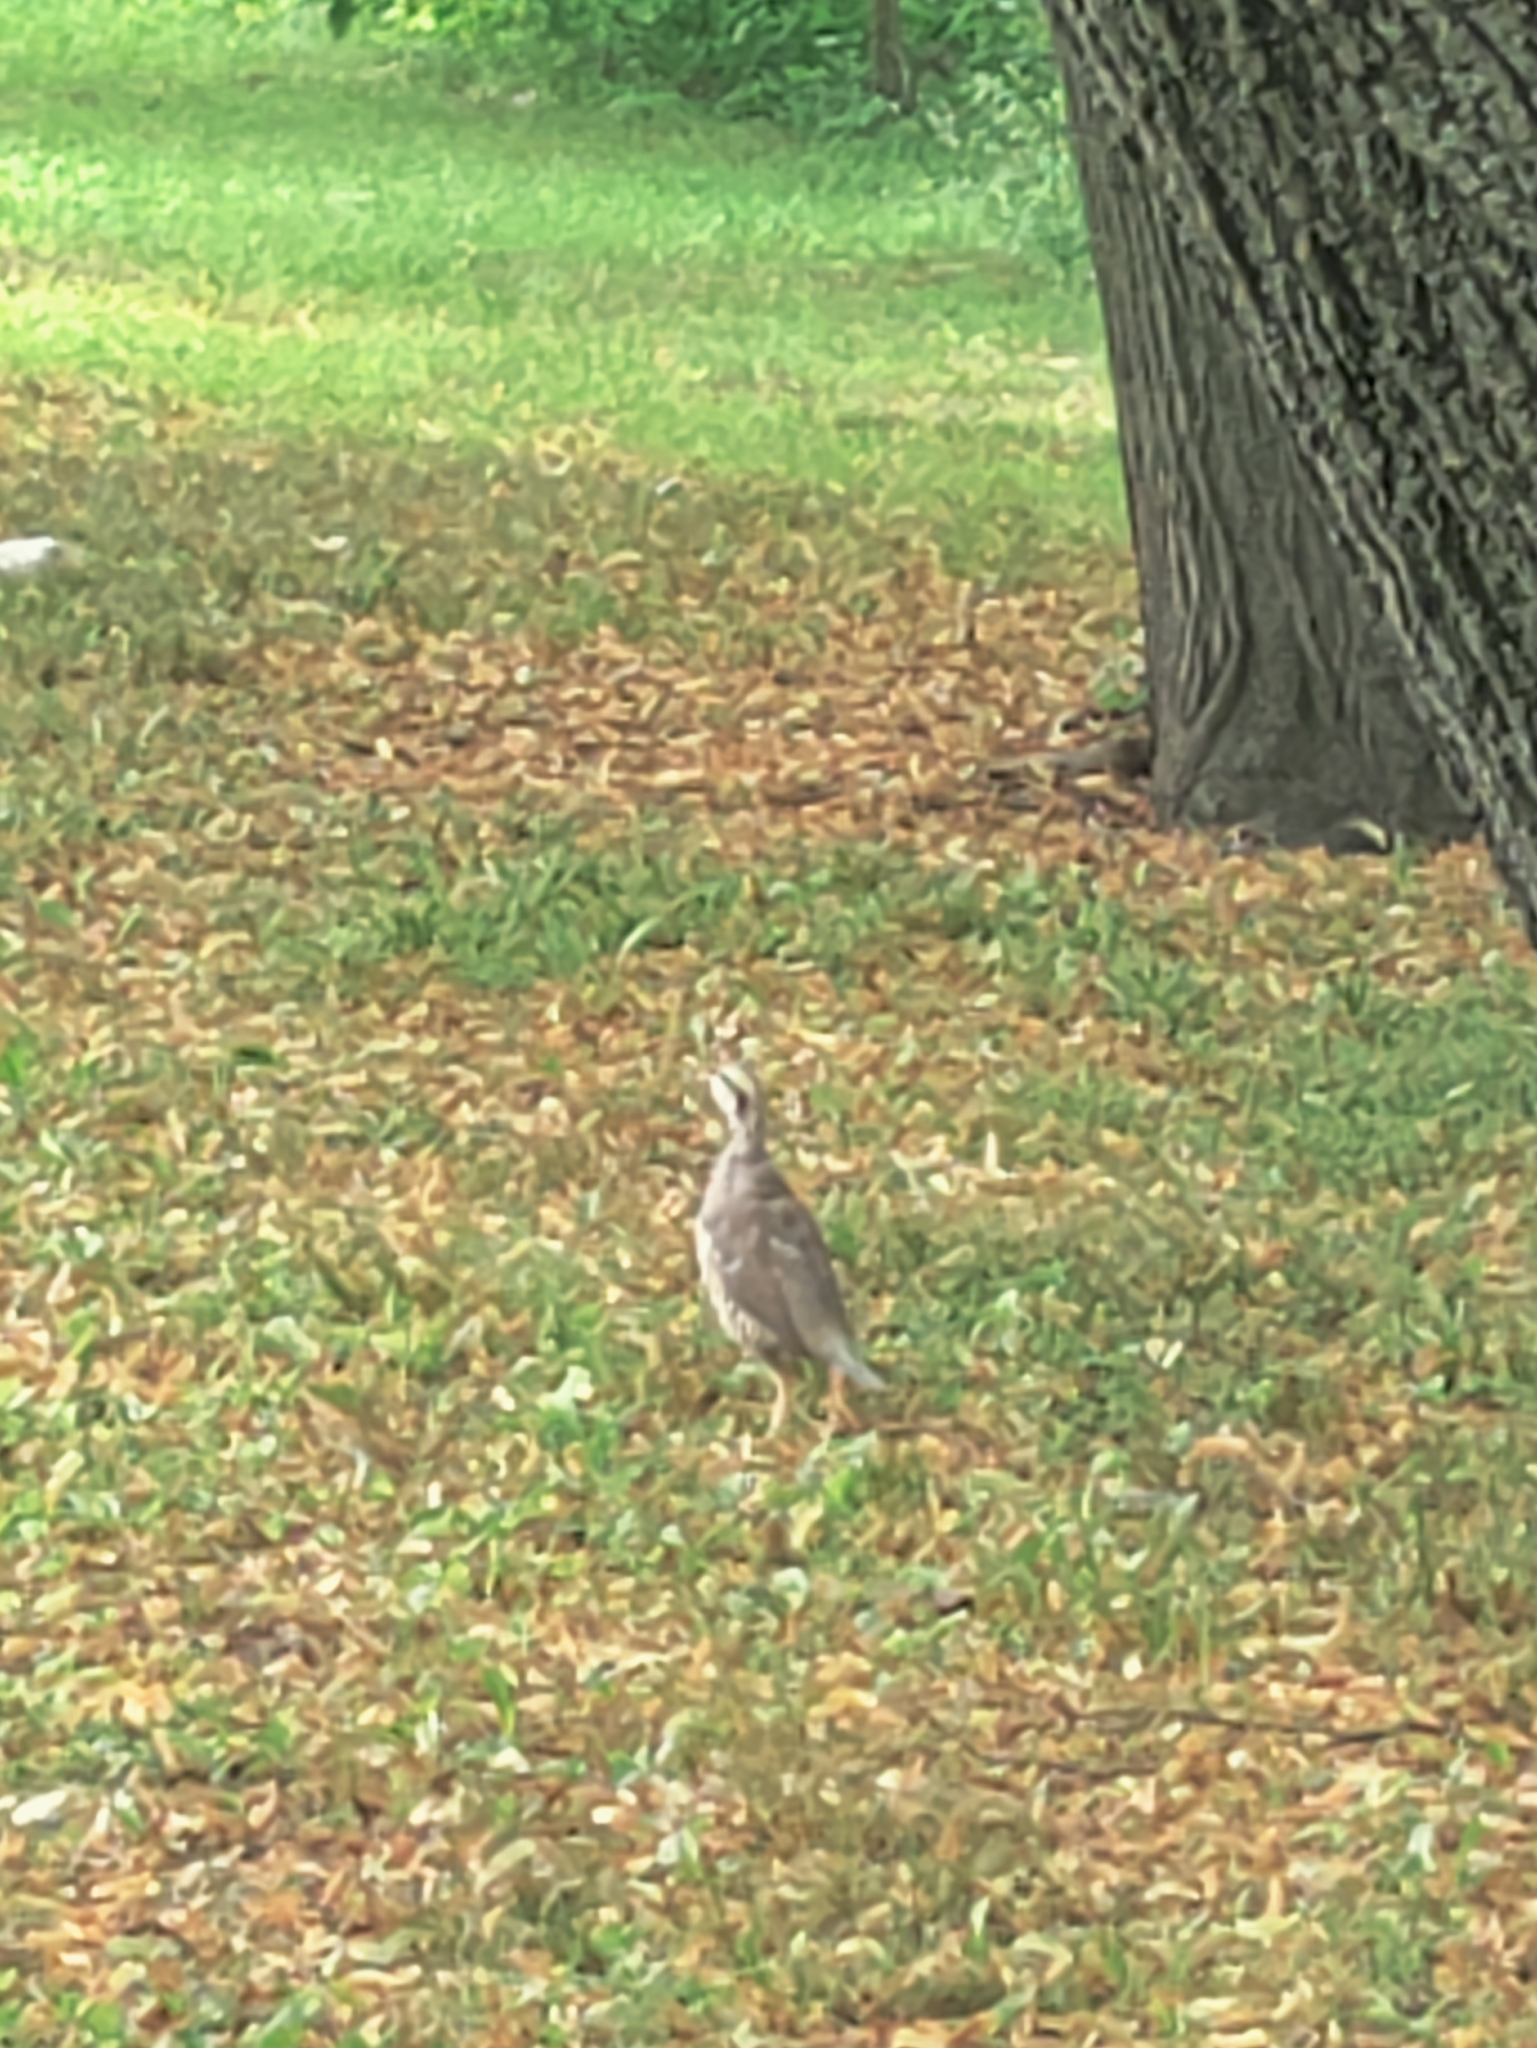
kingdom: Animalia
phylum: Chordata
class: Aves
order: Galliformes
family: Phasianidae
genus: Alectoris
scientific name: Alectoris chukar
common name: Chukar
